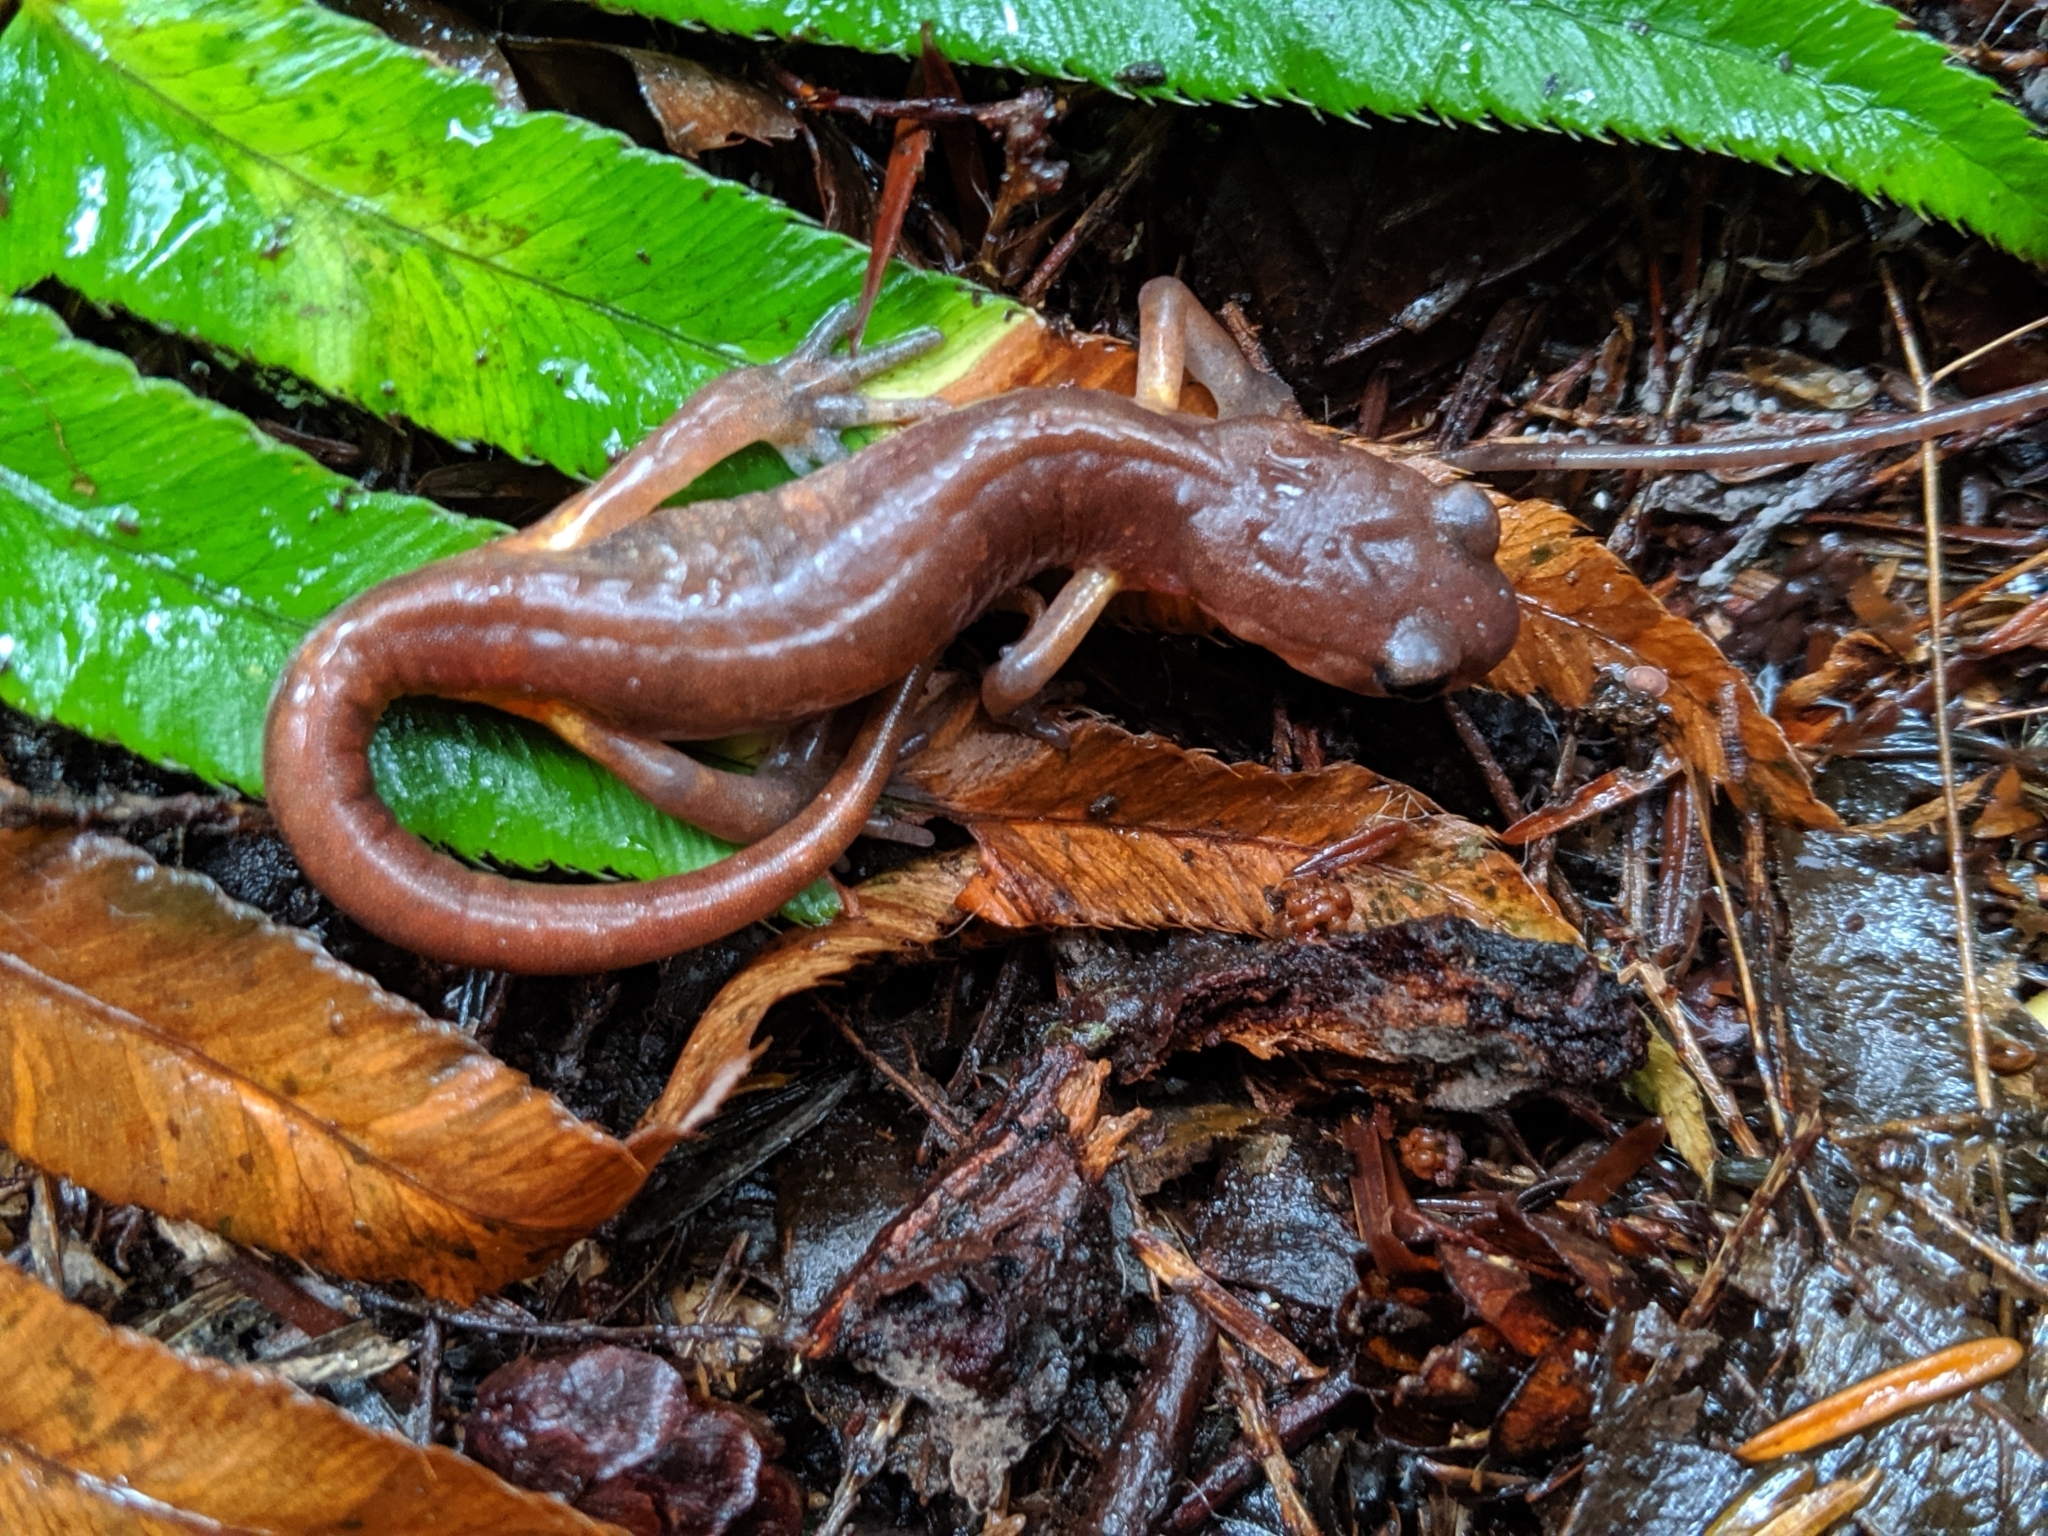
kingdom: Animalia
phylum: Chordata
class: Amphibia
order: Caudata
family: Plethodontidae
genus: Ensatina
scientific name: Ensatina eschscholtzii
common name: Ensatina
